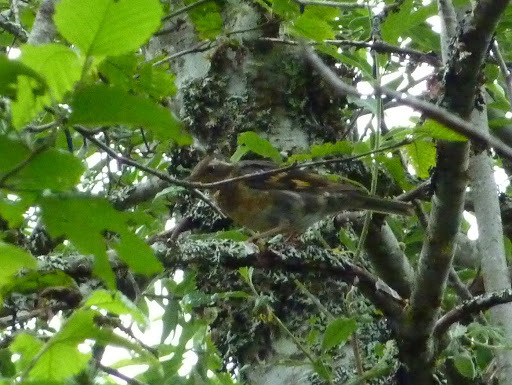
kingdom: Animalia
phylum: Chordata
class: Aves
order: Passeriformes
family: Turdidae
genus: Ixoreus
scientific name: Ixoreus naevius
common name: Varied thrush
